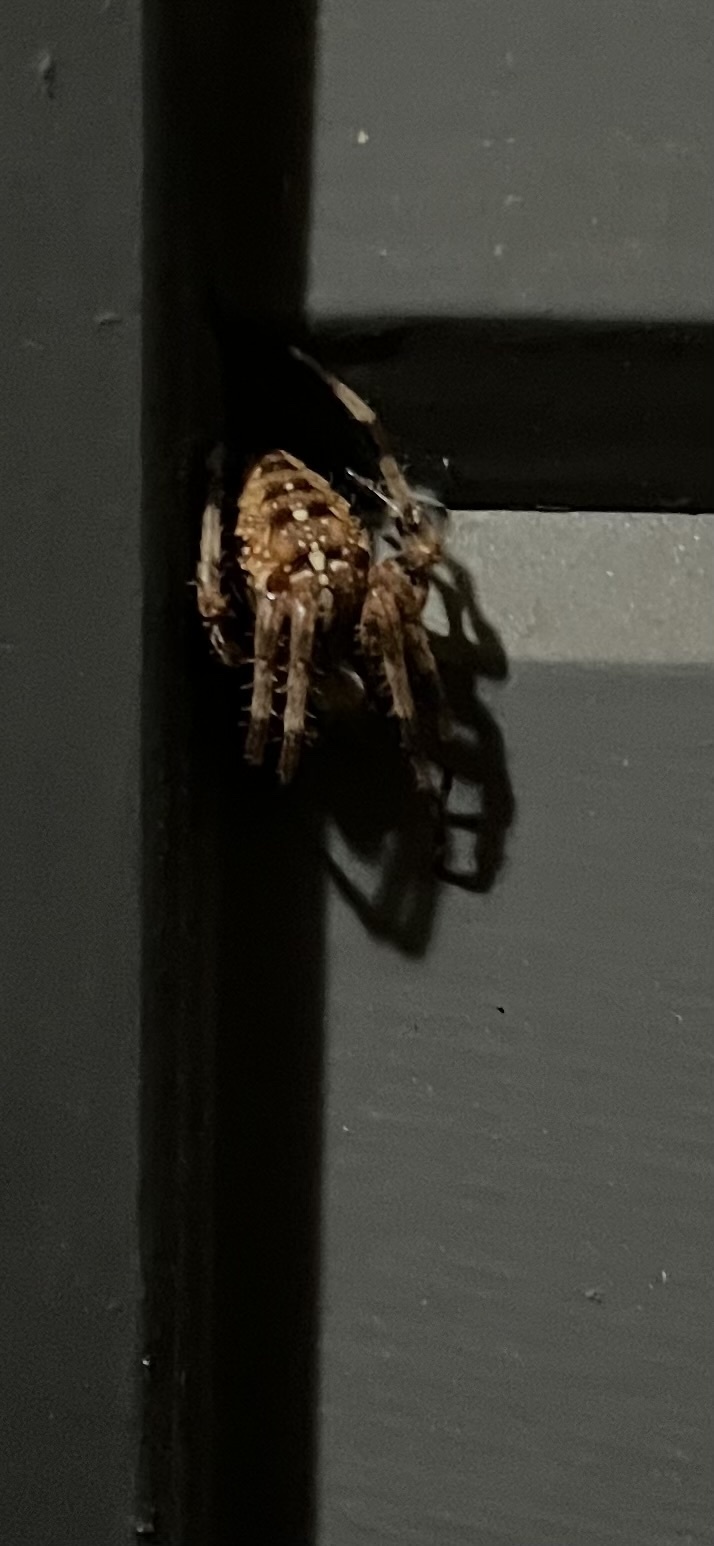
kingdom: Animalia
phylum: Arthropoda
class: Arachnida
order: Araneae
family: Araneidae
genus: Araneus
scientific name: Araneus diadematus
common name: Cross orbweaver
